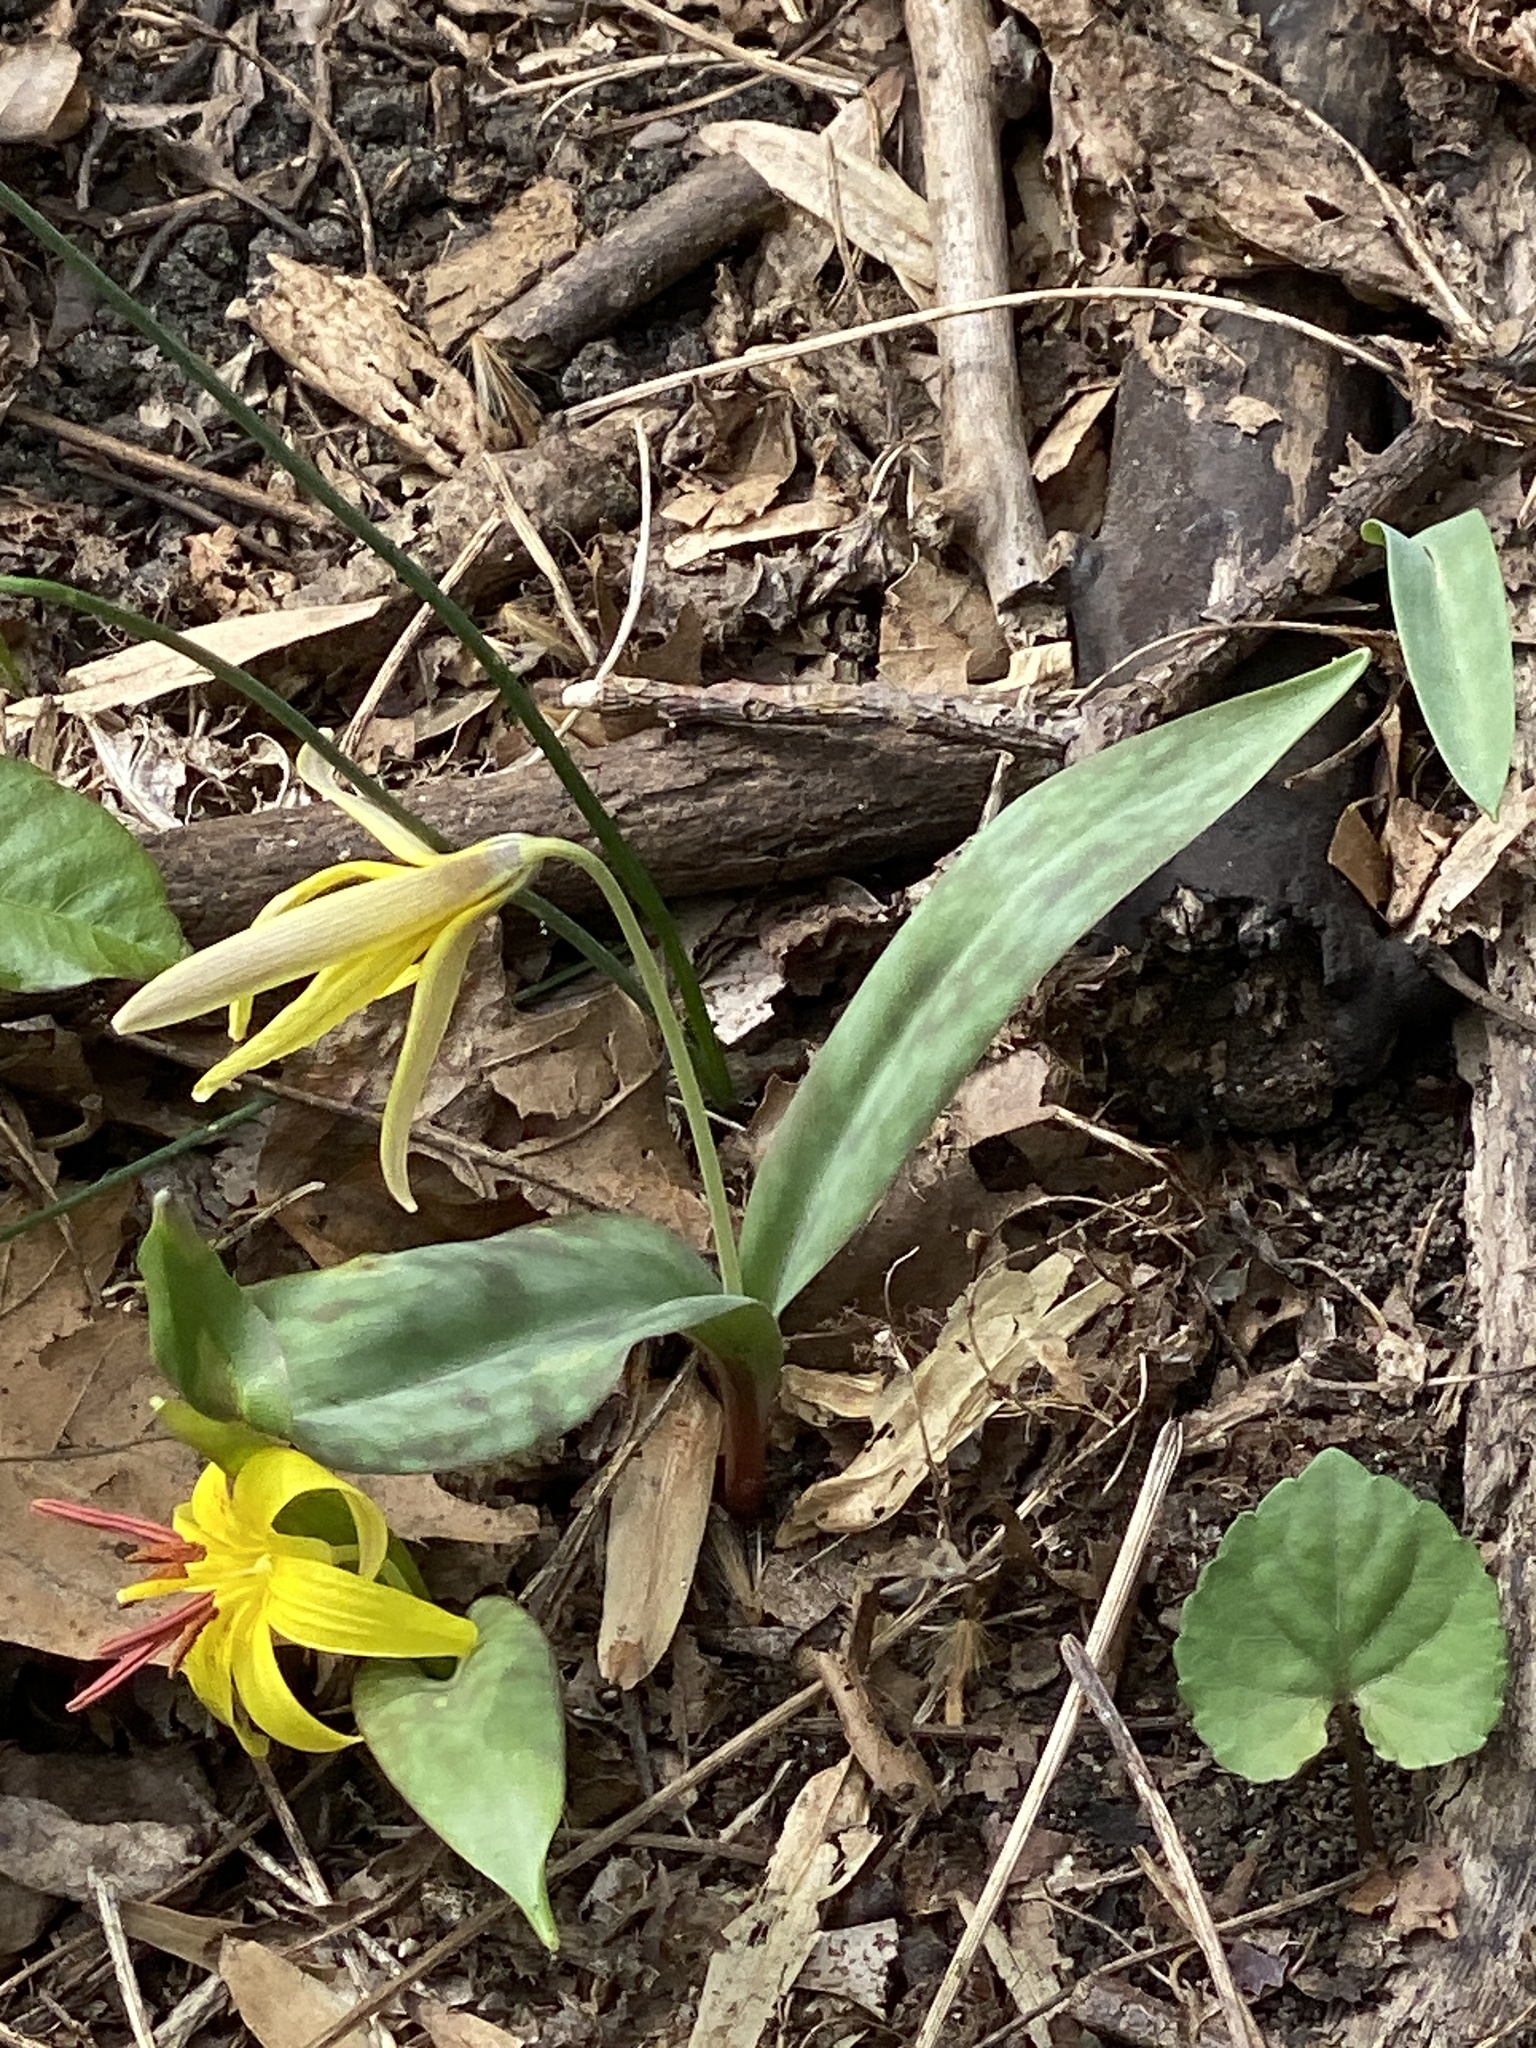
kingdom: Plantae
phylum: Tracheophyta
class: Liliopsida
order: Liliales
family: Liliaceae
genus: Erythronium
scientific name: Erythronium americanum
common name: Yellow adder's-tongue
